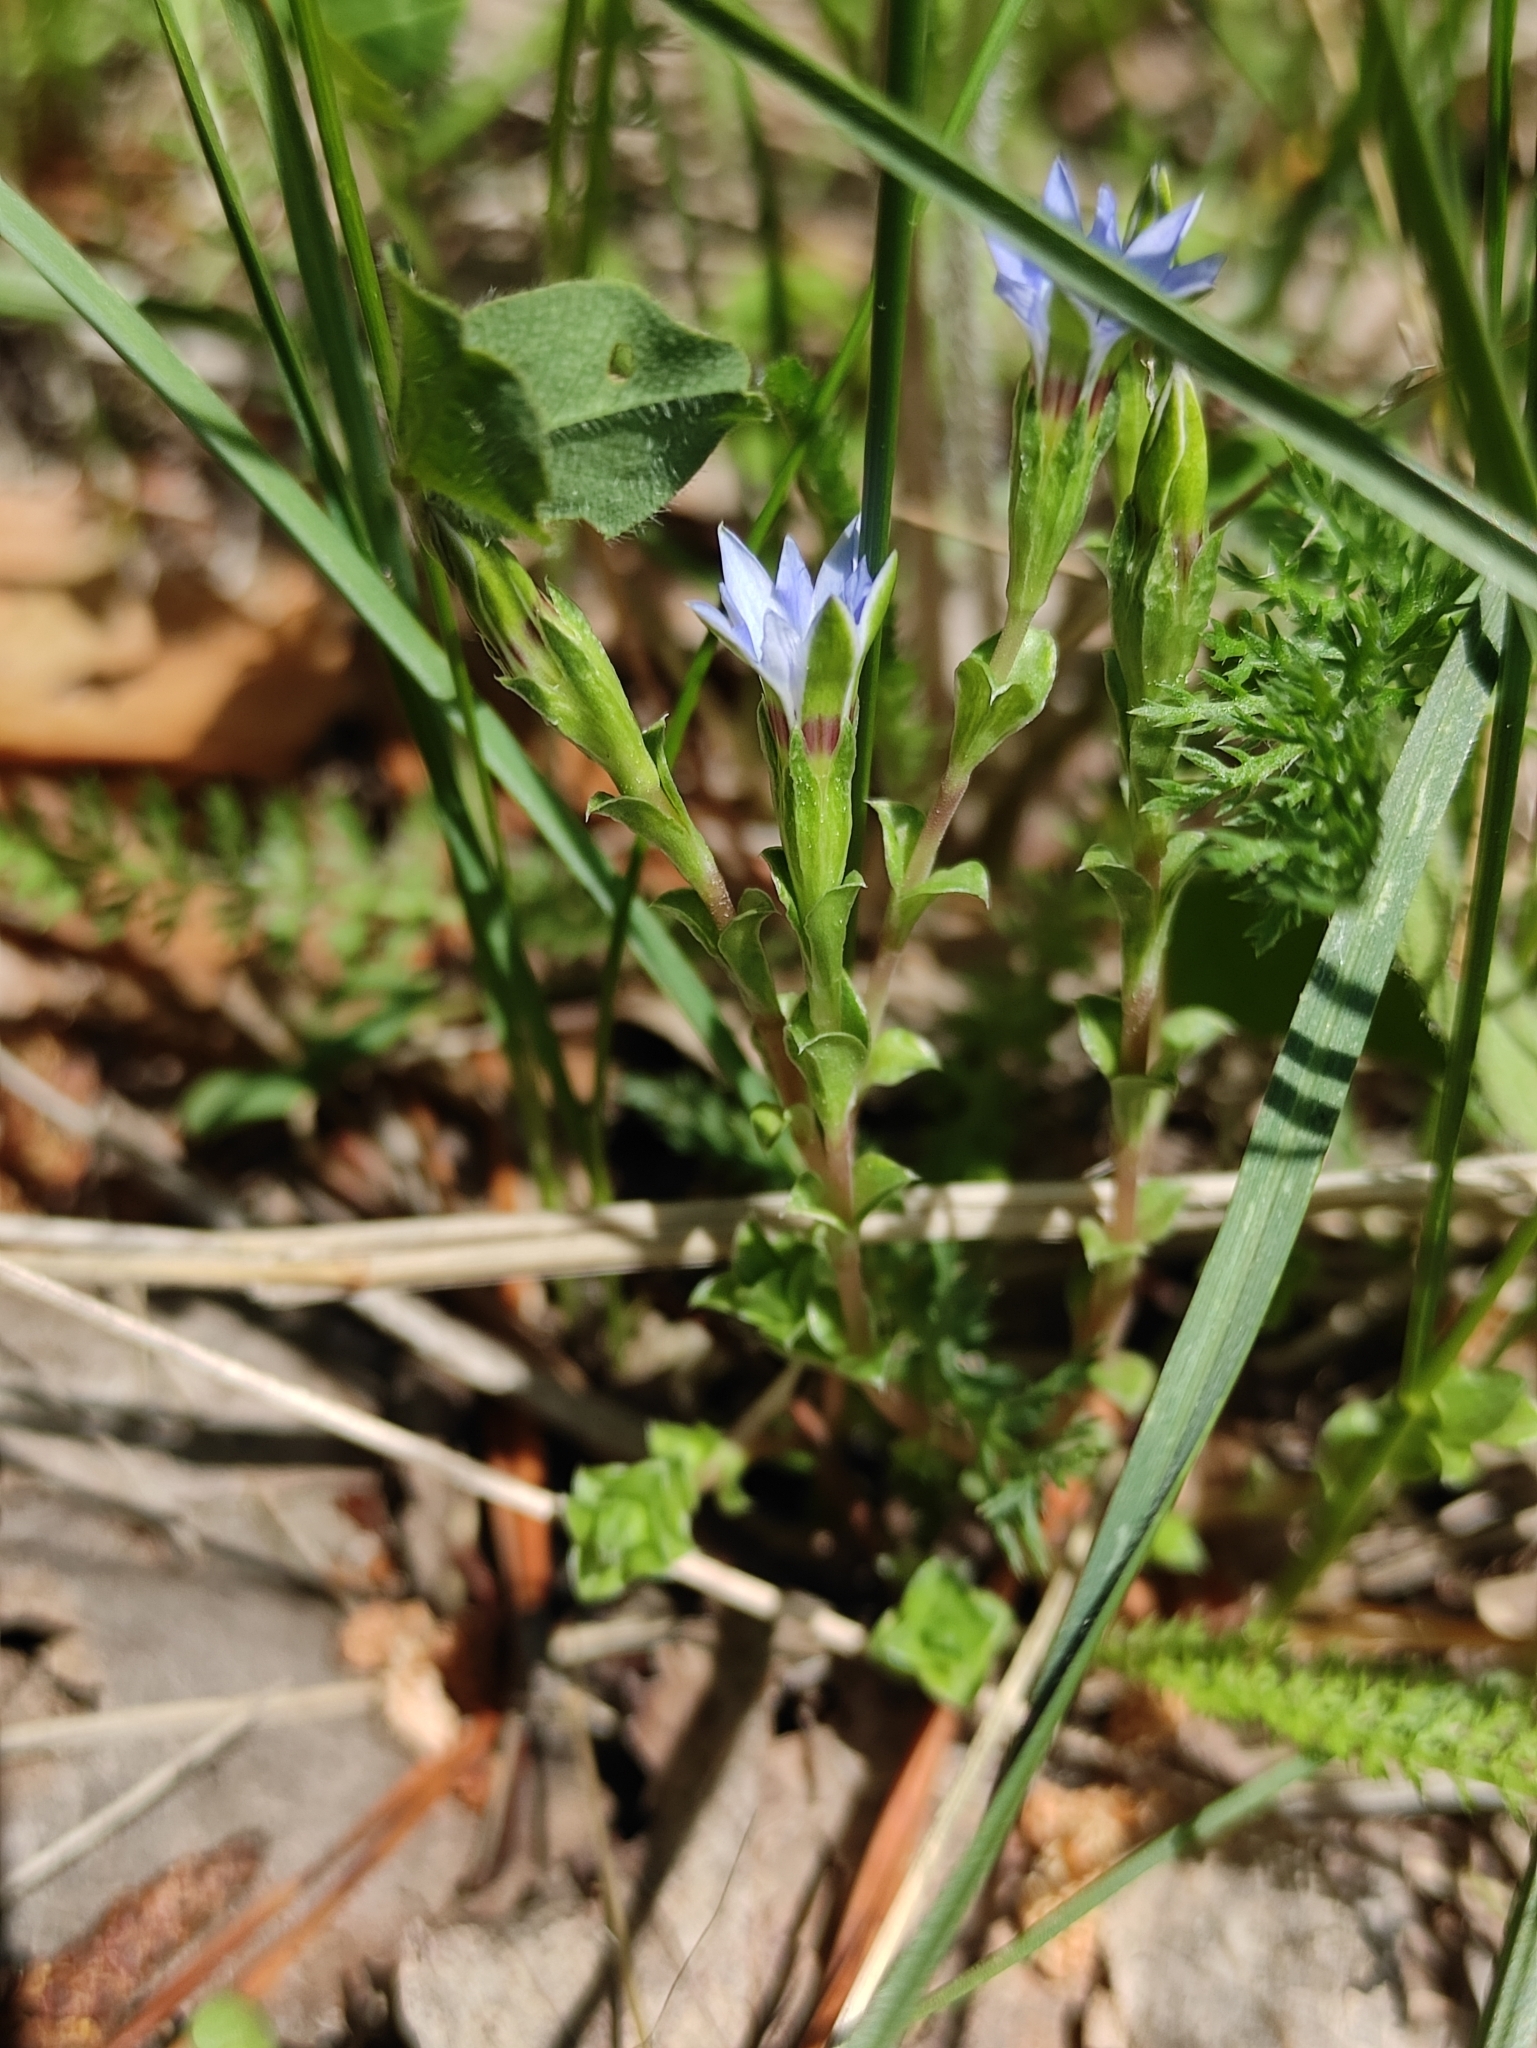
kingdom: Plantae
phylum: Tracheophyta
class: Magnoliopsida
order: Gentianales
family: Gentianaceae
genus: Gentiana
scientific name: Gentiana squarrosa
